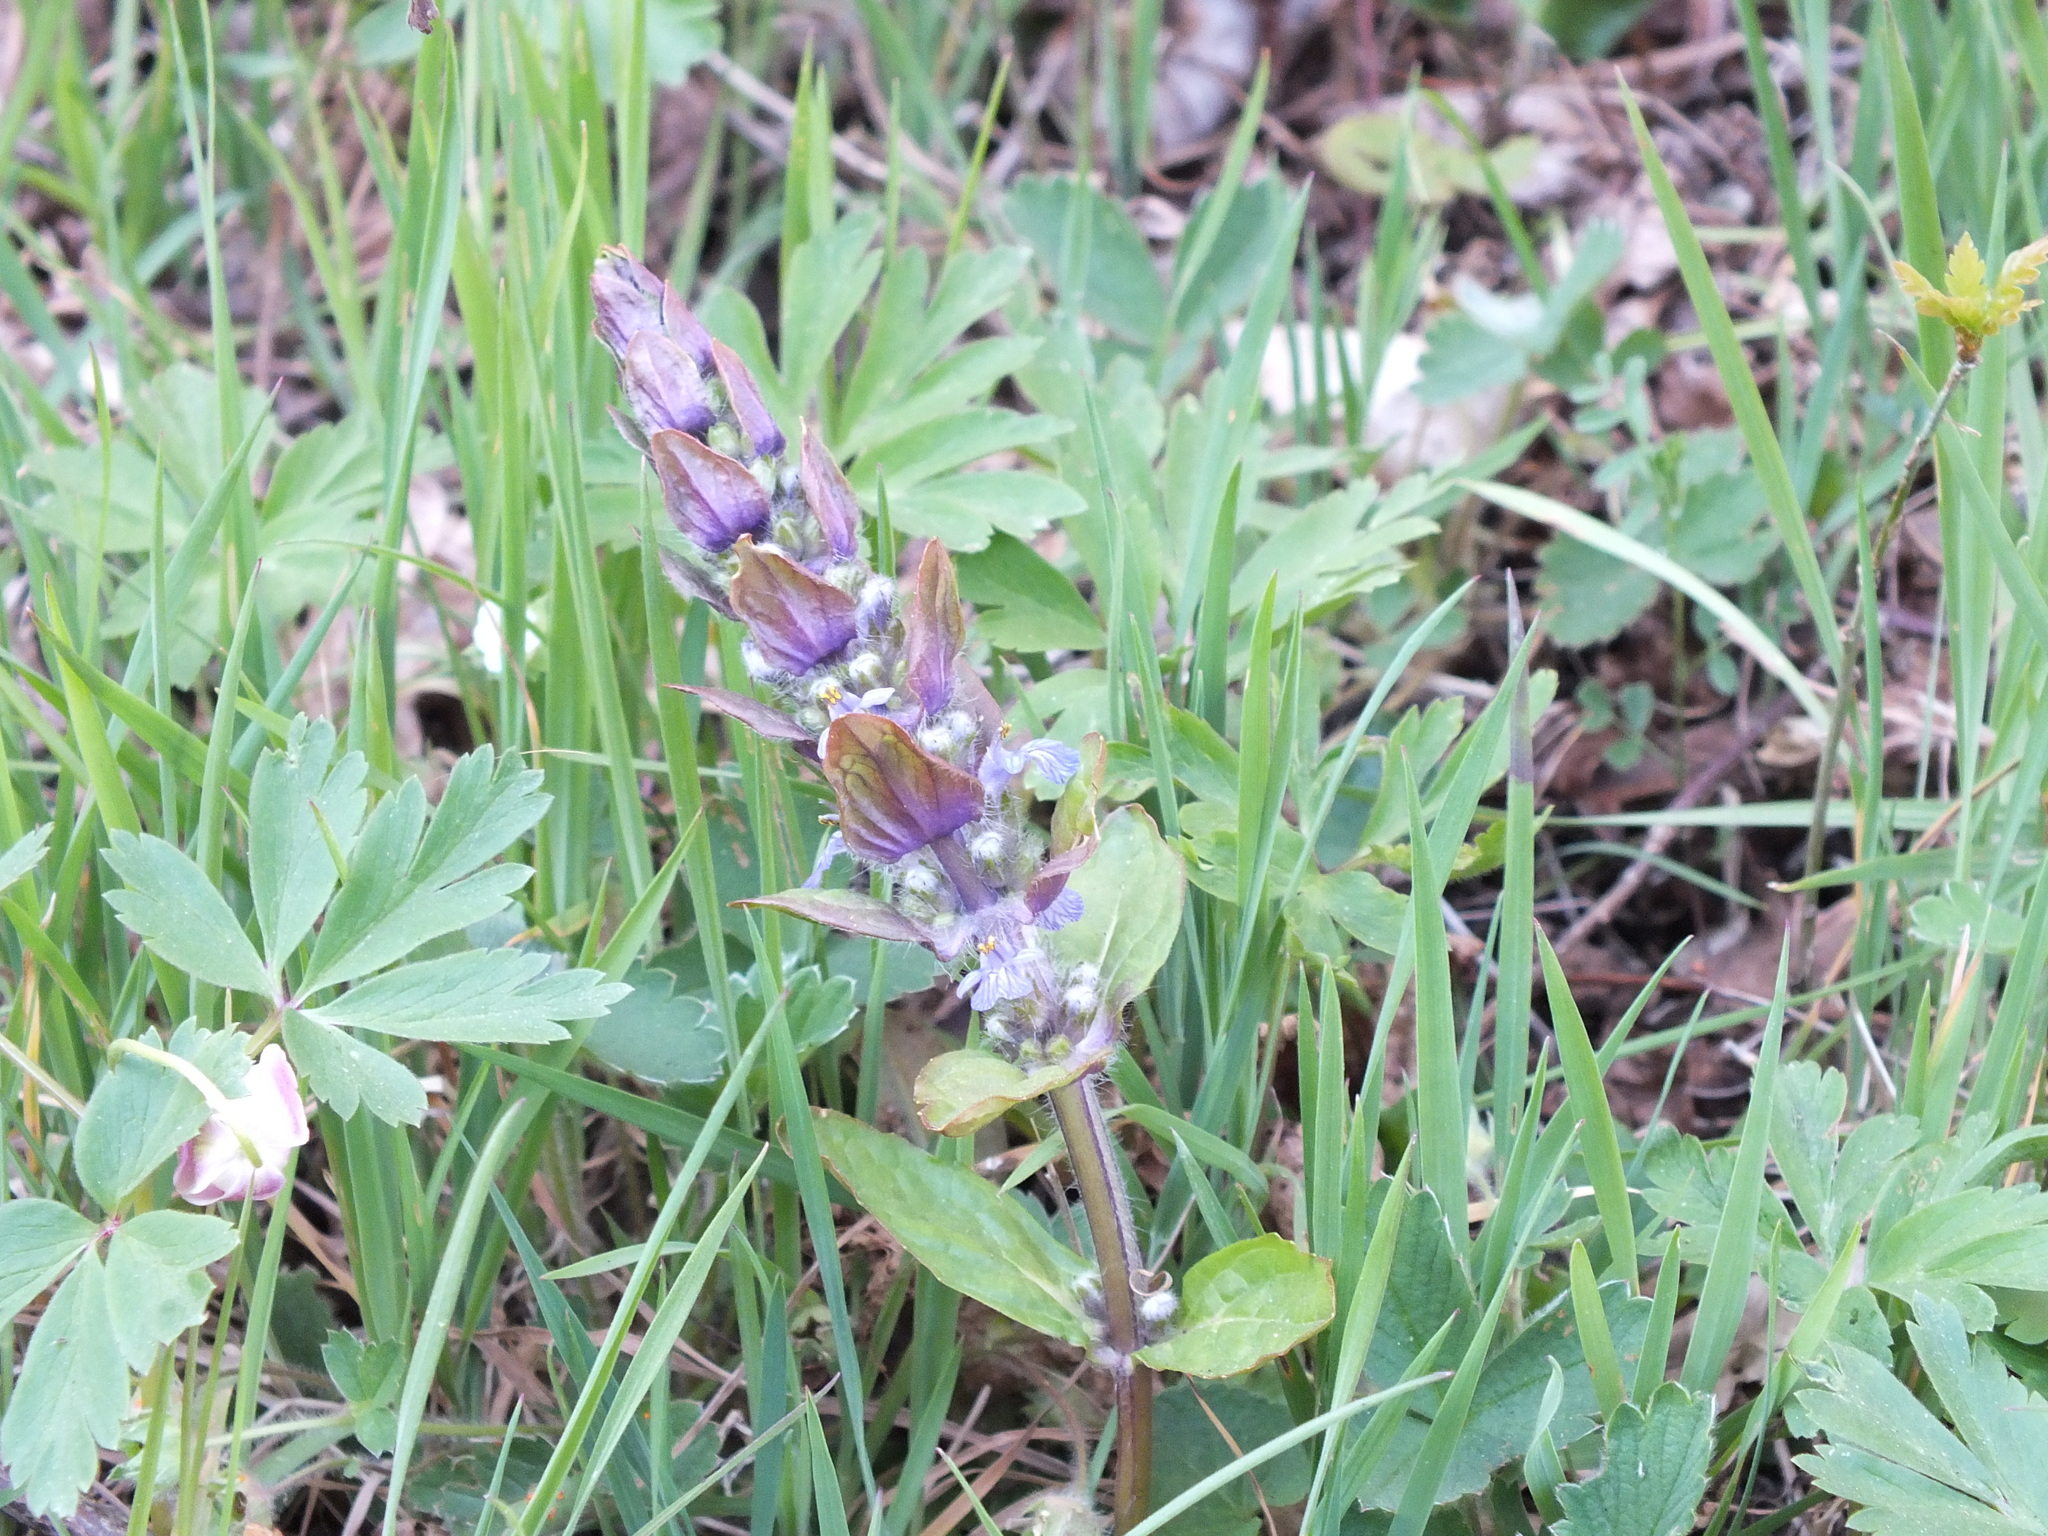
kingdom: Plantae
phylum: Tracheophyta
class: Magnoliopsida
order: Lamiales
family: Lamiaceae
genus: Ajuga
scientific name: Ajuga reptans
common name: Bugle
